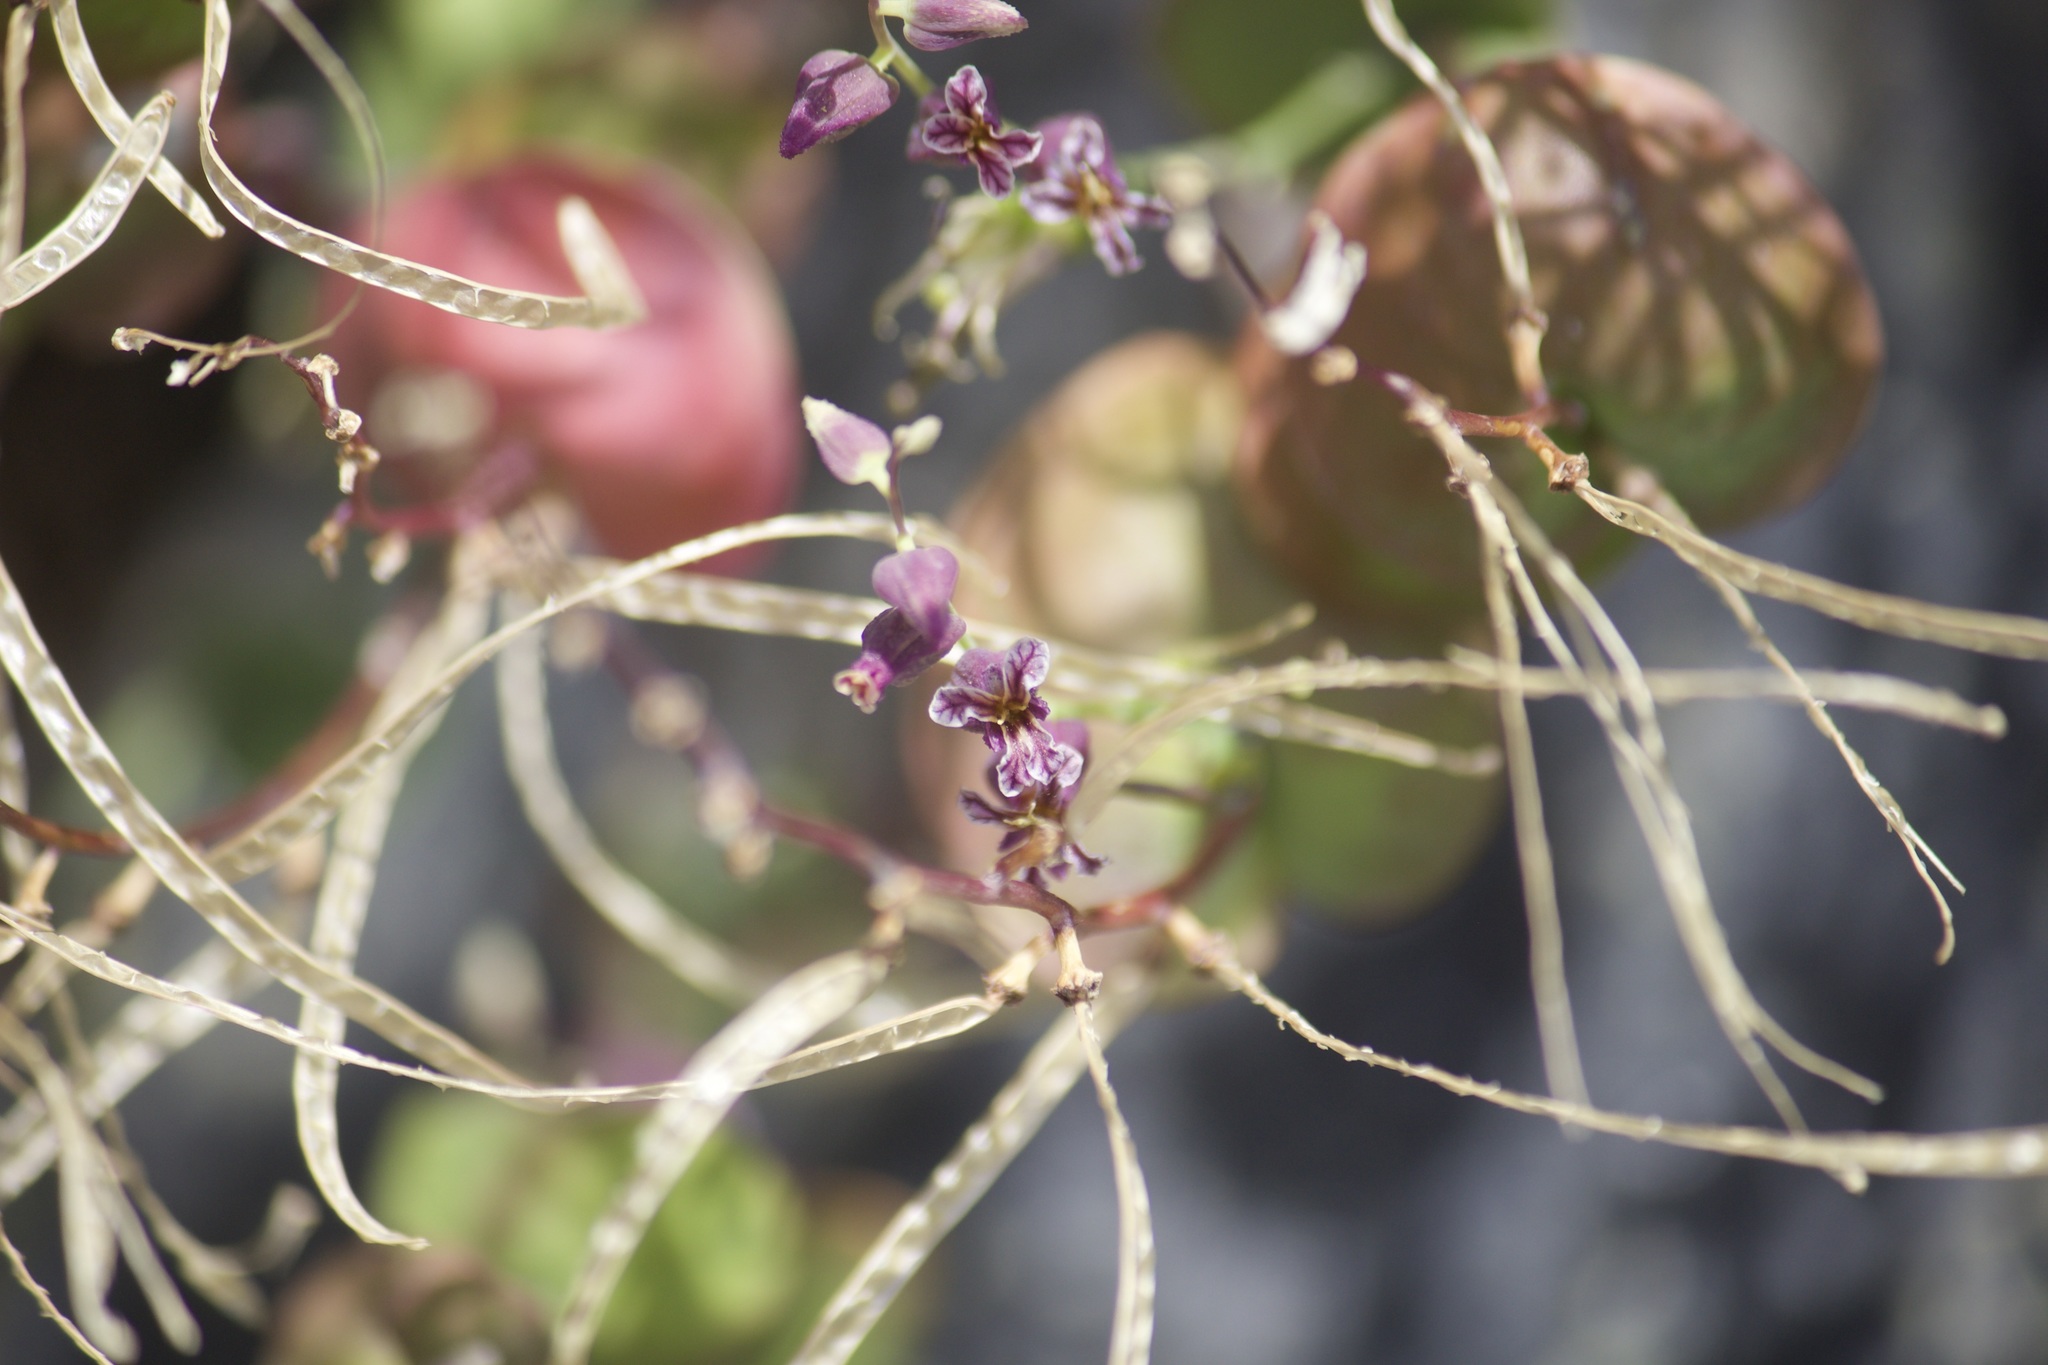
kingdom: Plantae
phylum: Tracheophyta
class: Magnoliopsida
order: Brassicales
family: Brassicaceae
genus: Streptanthus
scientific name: Streptanthus tortuosus
